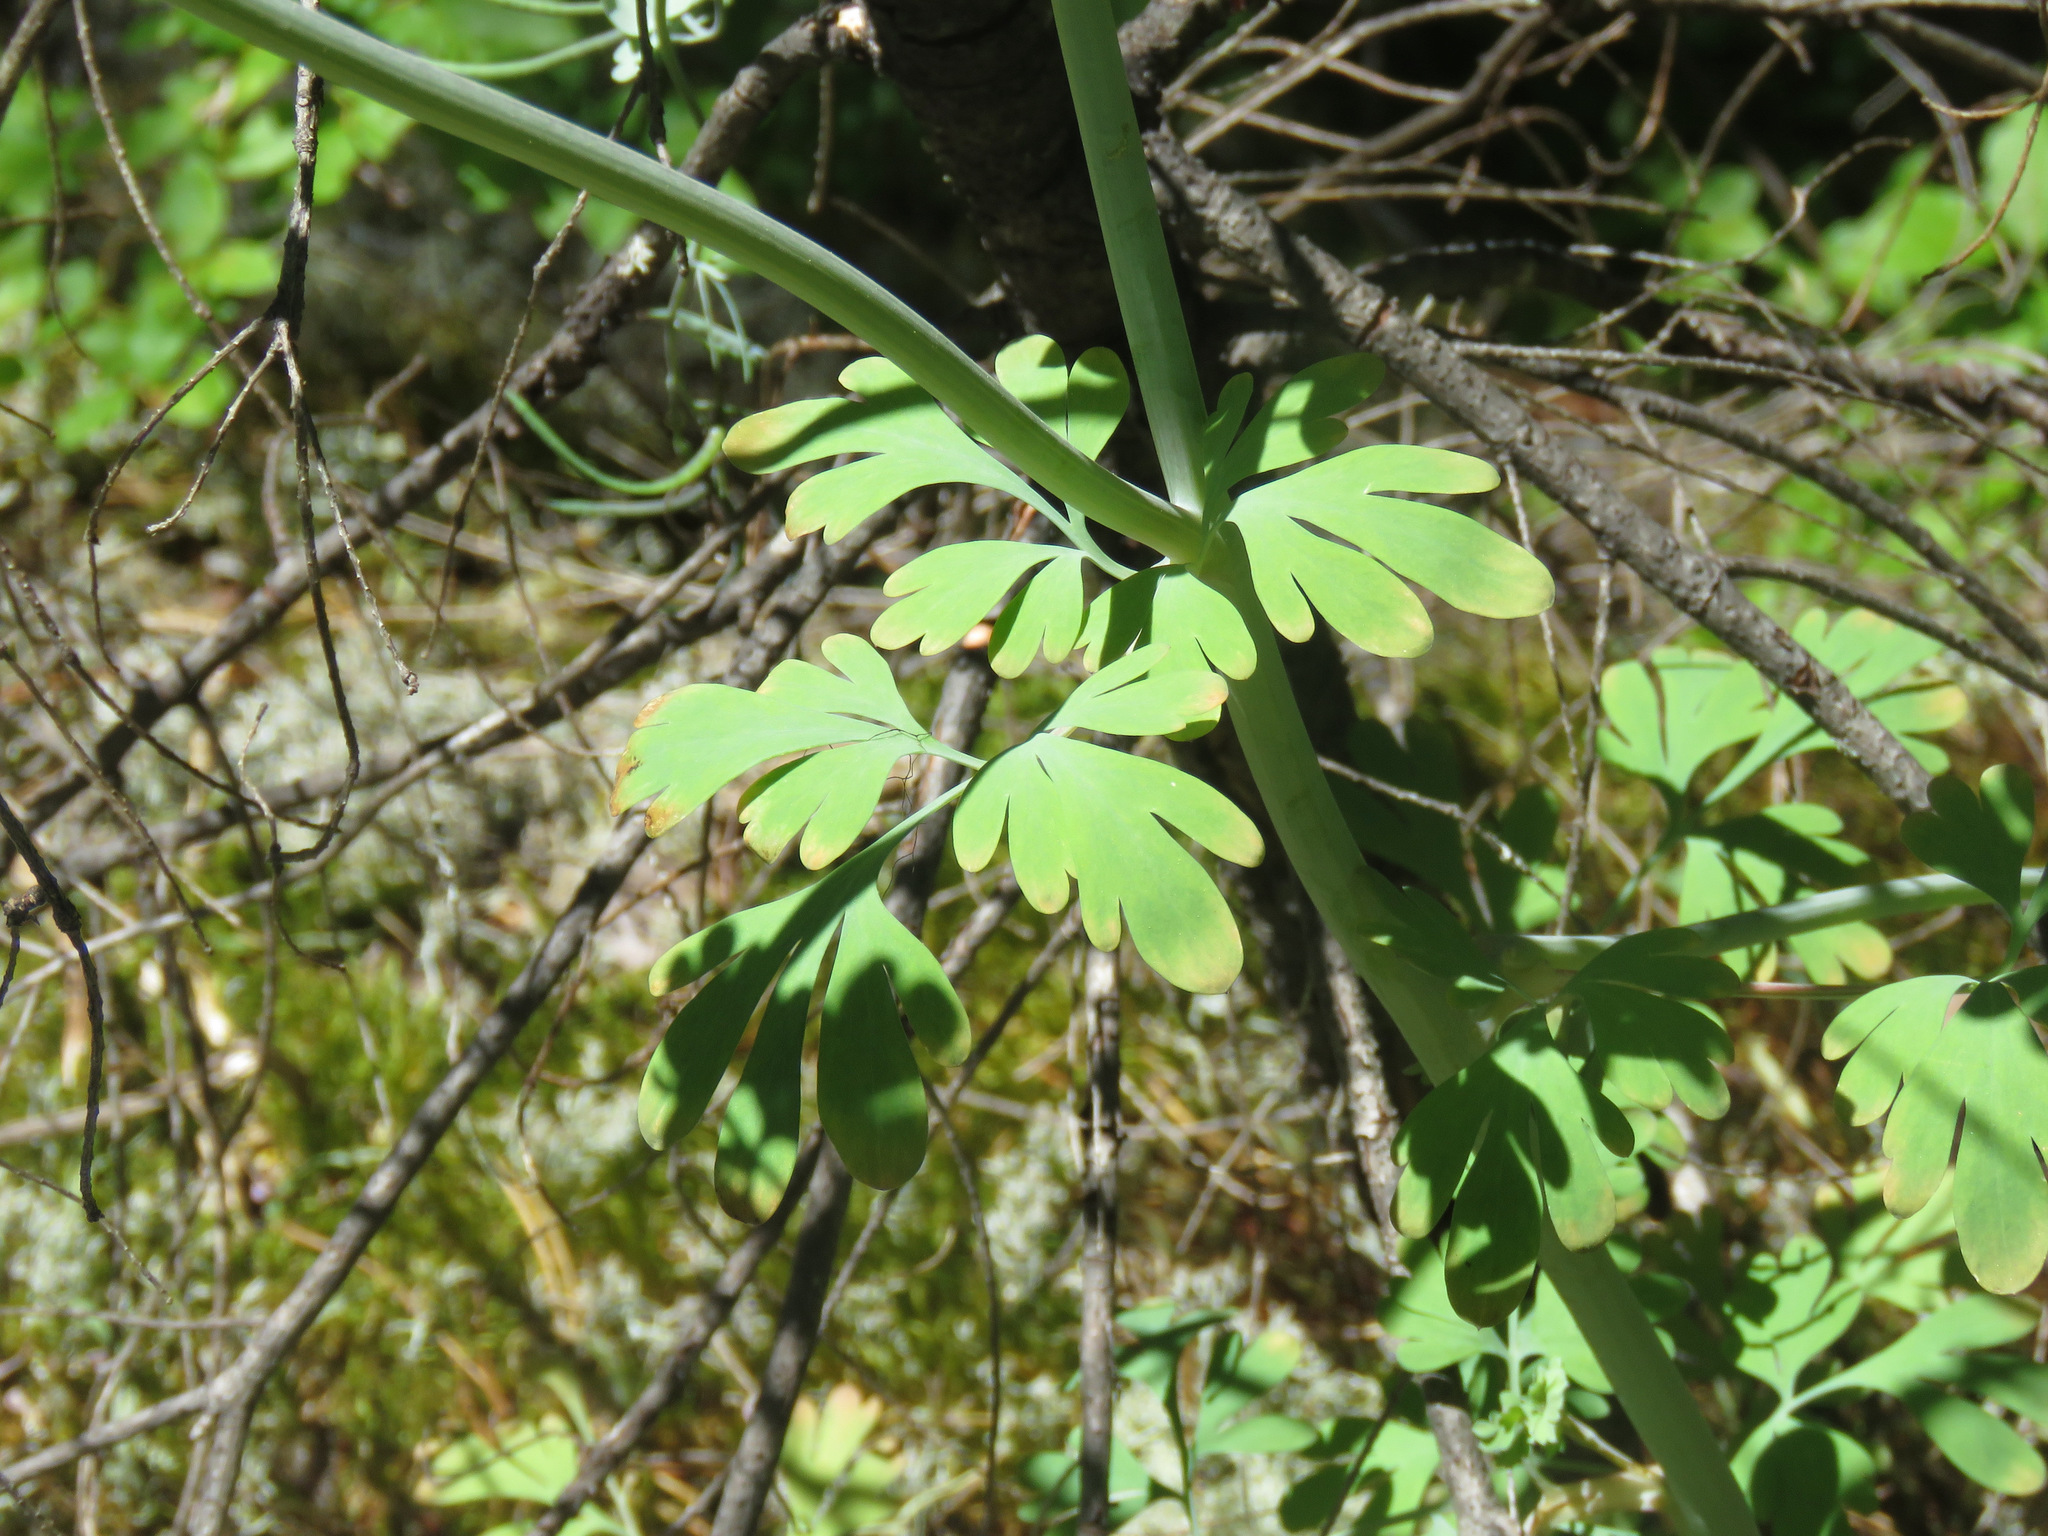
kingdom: Plantae
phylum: Tracheophyta
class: Magnoliopsida
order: Ranunculales
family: Ranunculaceae
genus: Aquilegia
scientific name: Aquilegia formosa
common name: Sitka columbine
